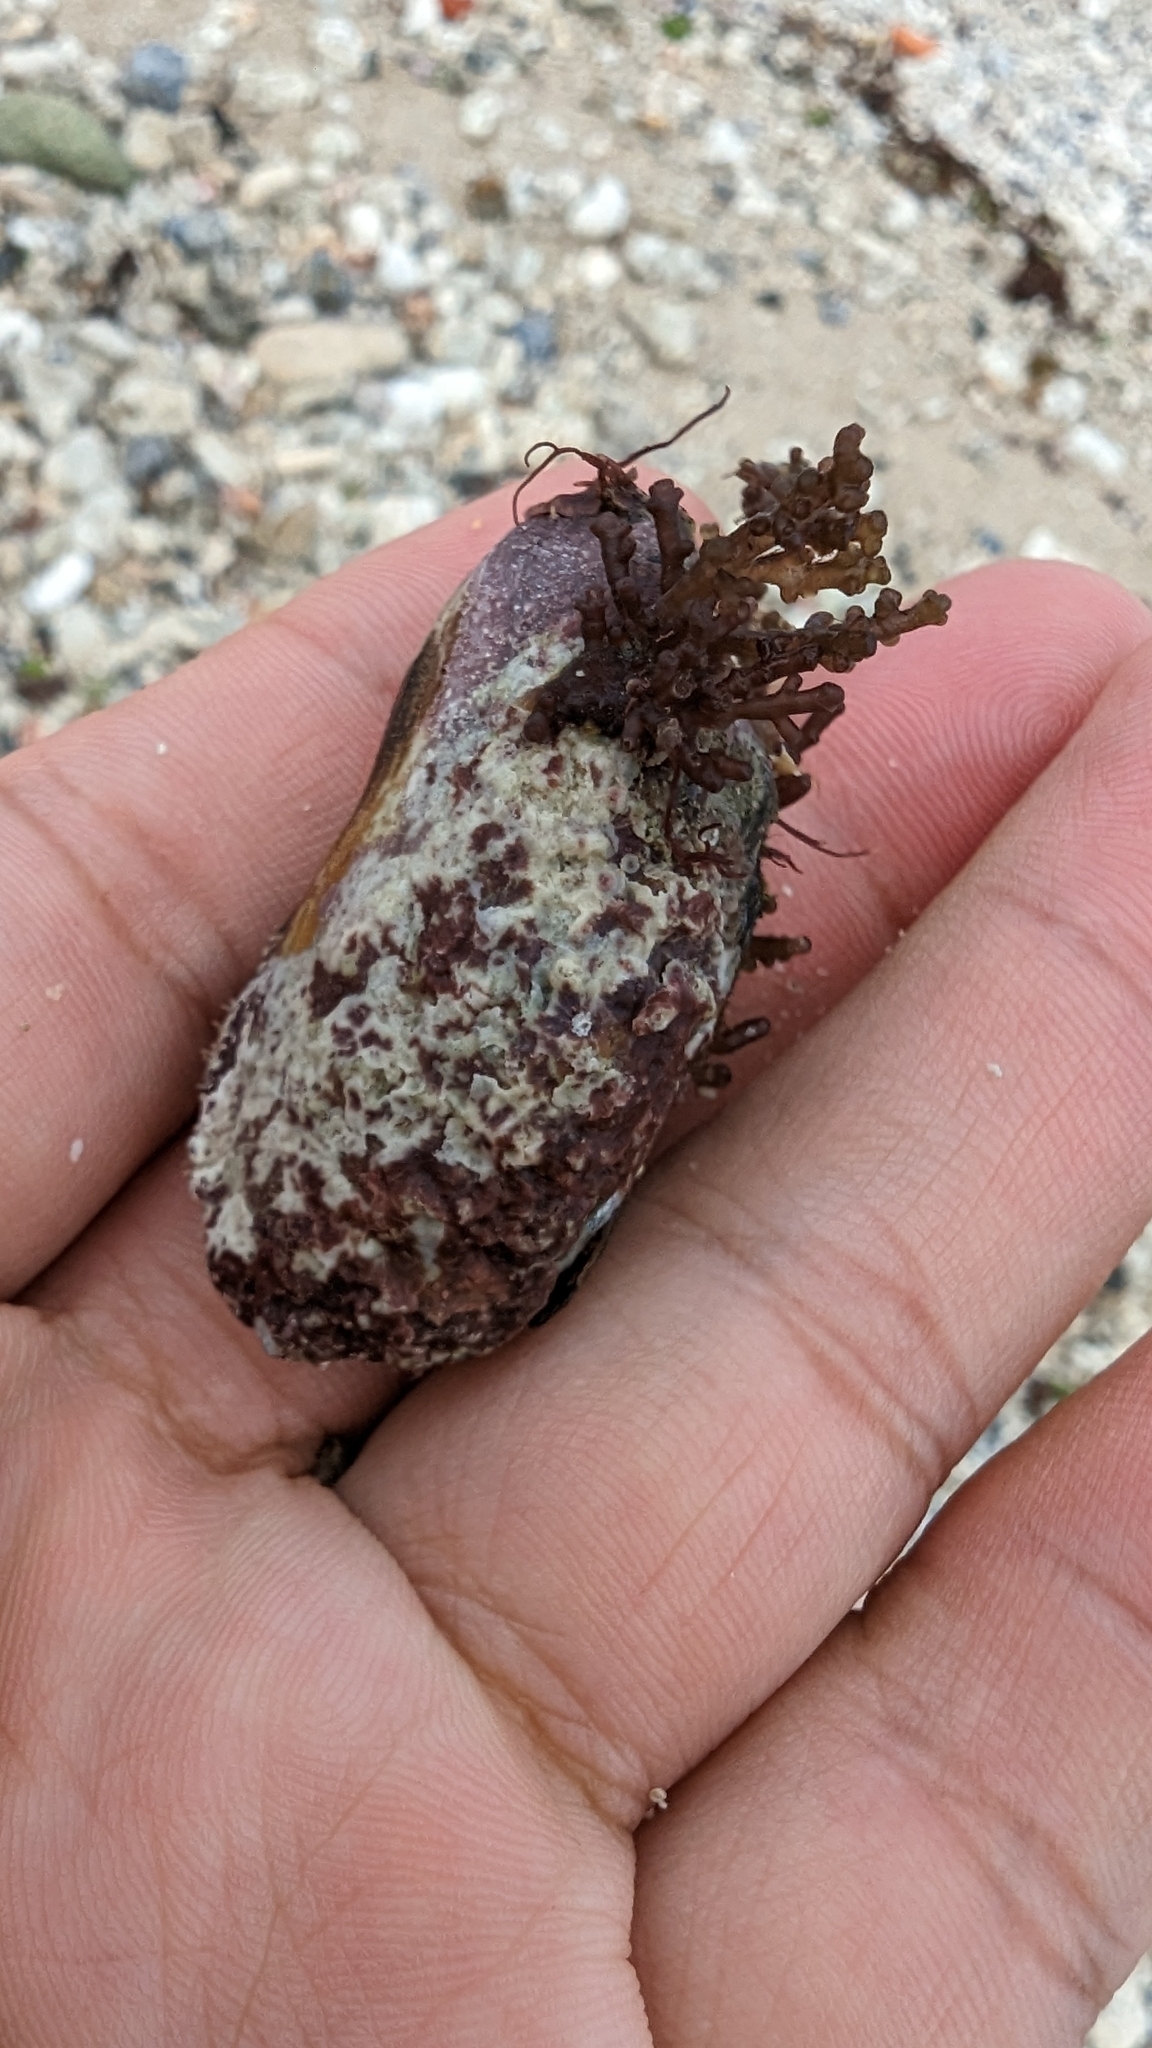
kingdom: Animalia
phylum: Mollusca
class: Bivalvia
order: Mytilida
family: Mytilidae
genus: Modiolus
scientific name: Modiolus auriculatus
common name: Ear mussel
